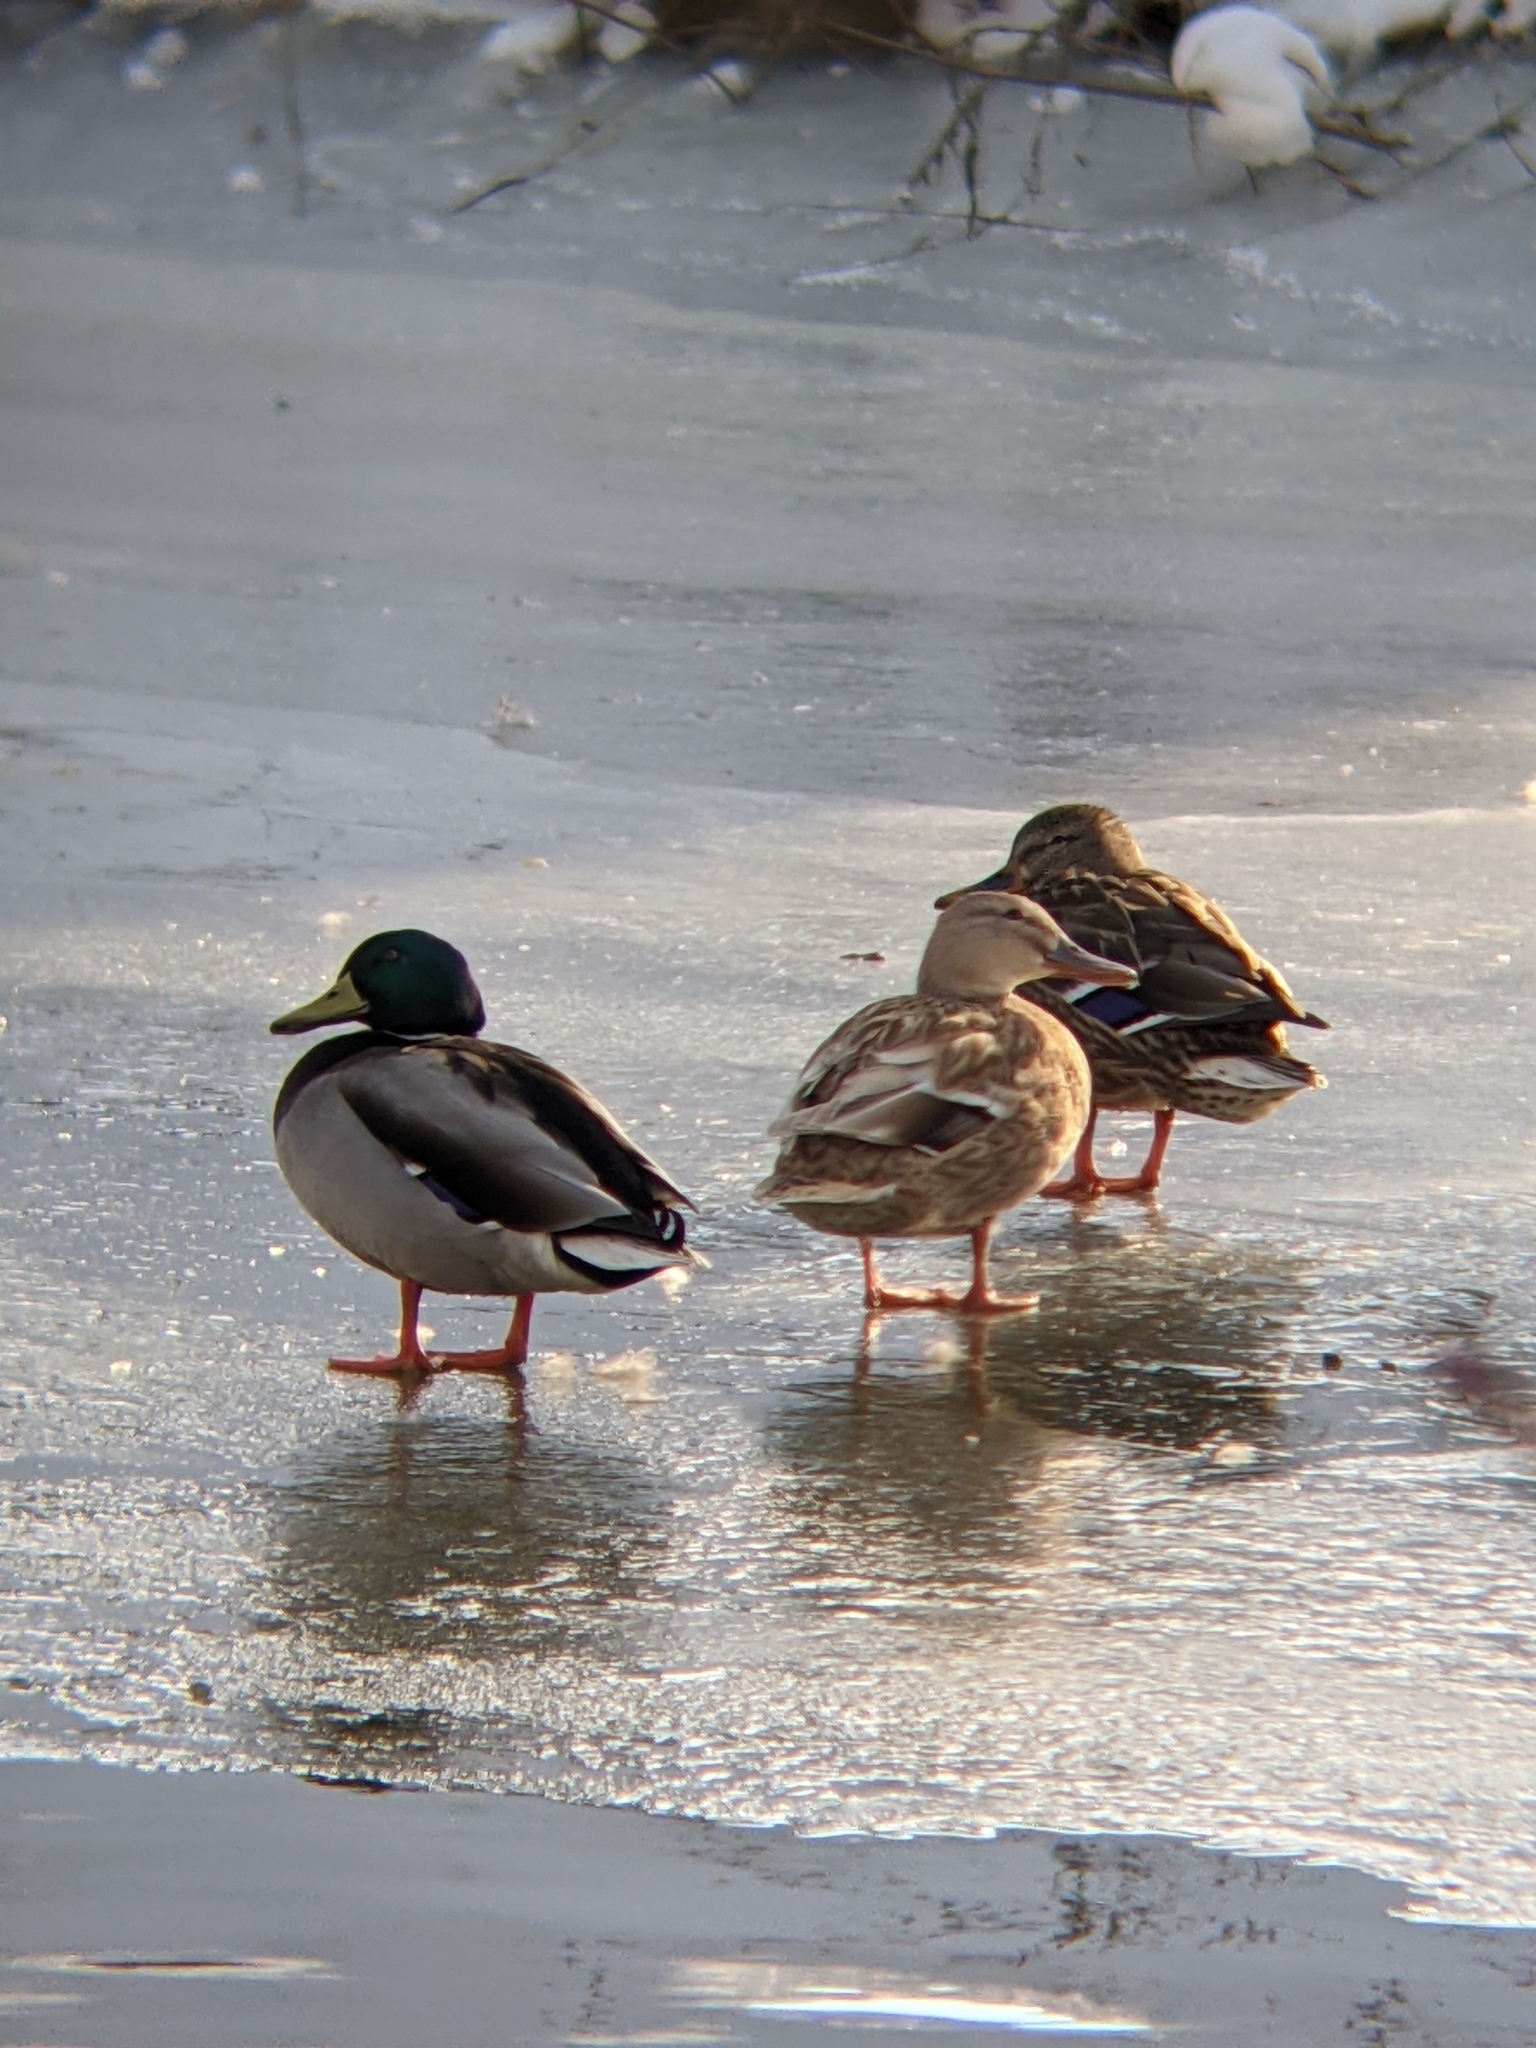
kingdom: Animalia
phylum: Chordata
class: Aves
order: Anseriformes
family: Anatidae
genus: Anas
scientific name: Anas platyrhynchos
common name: Mallard
